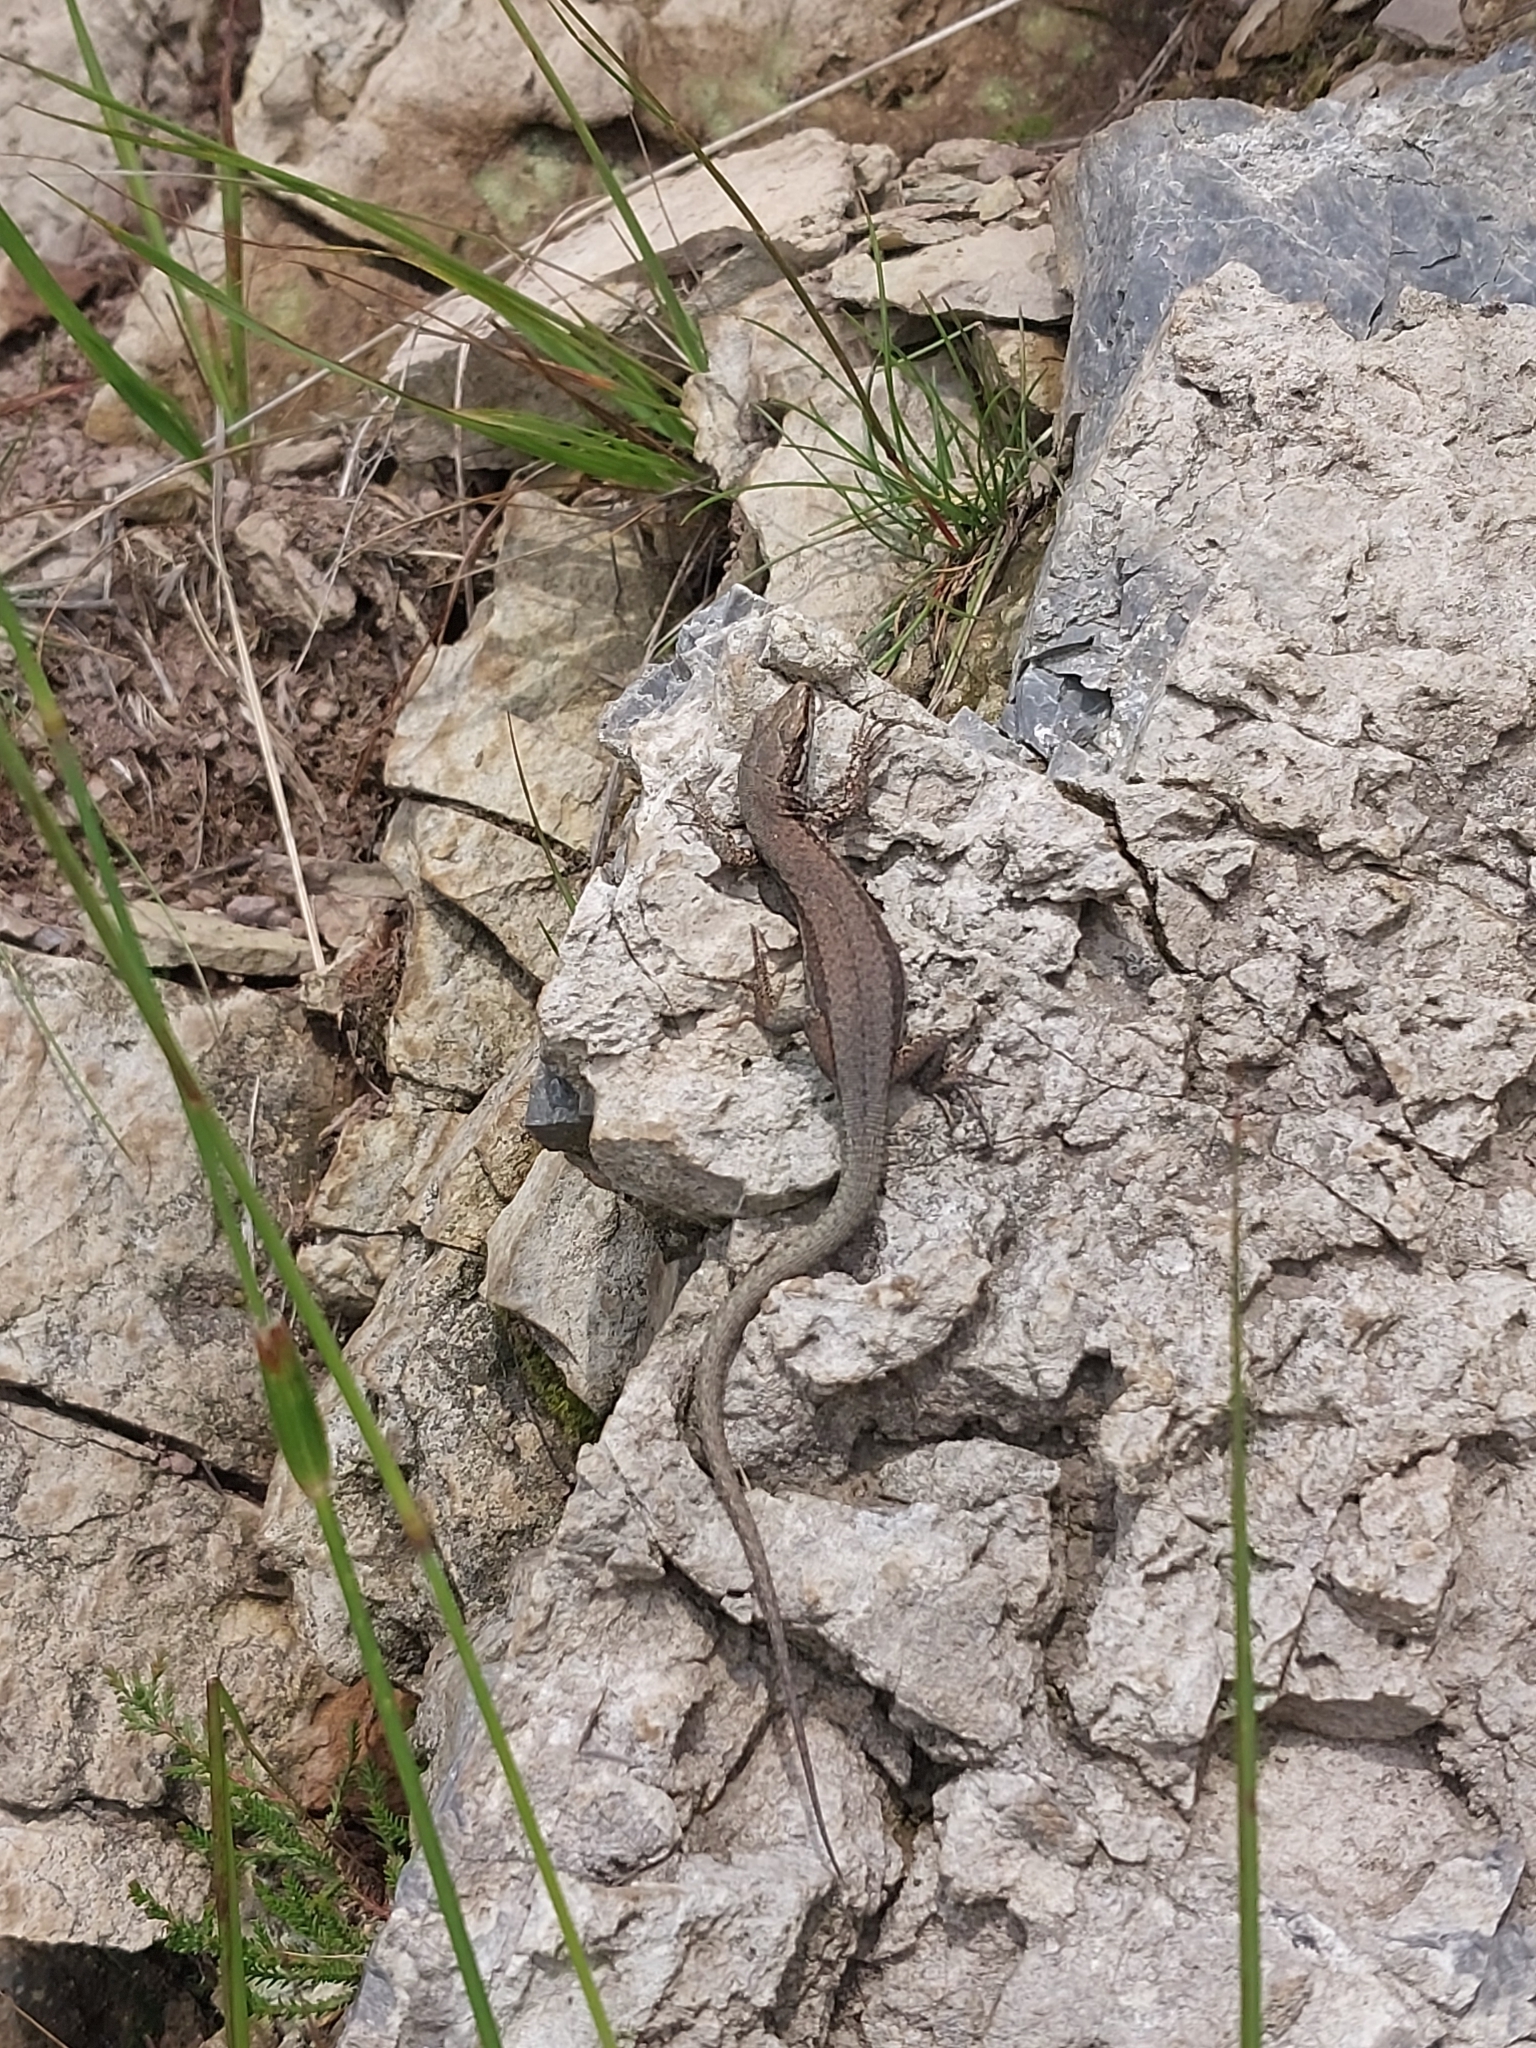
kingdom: Animalia
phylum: Chordata
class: Squamata
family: Lacertidae
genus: Podarcis
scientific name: Podarcis muralis
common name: Common wall lizard
